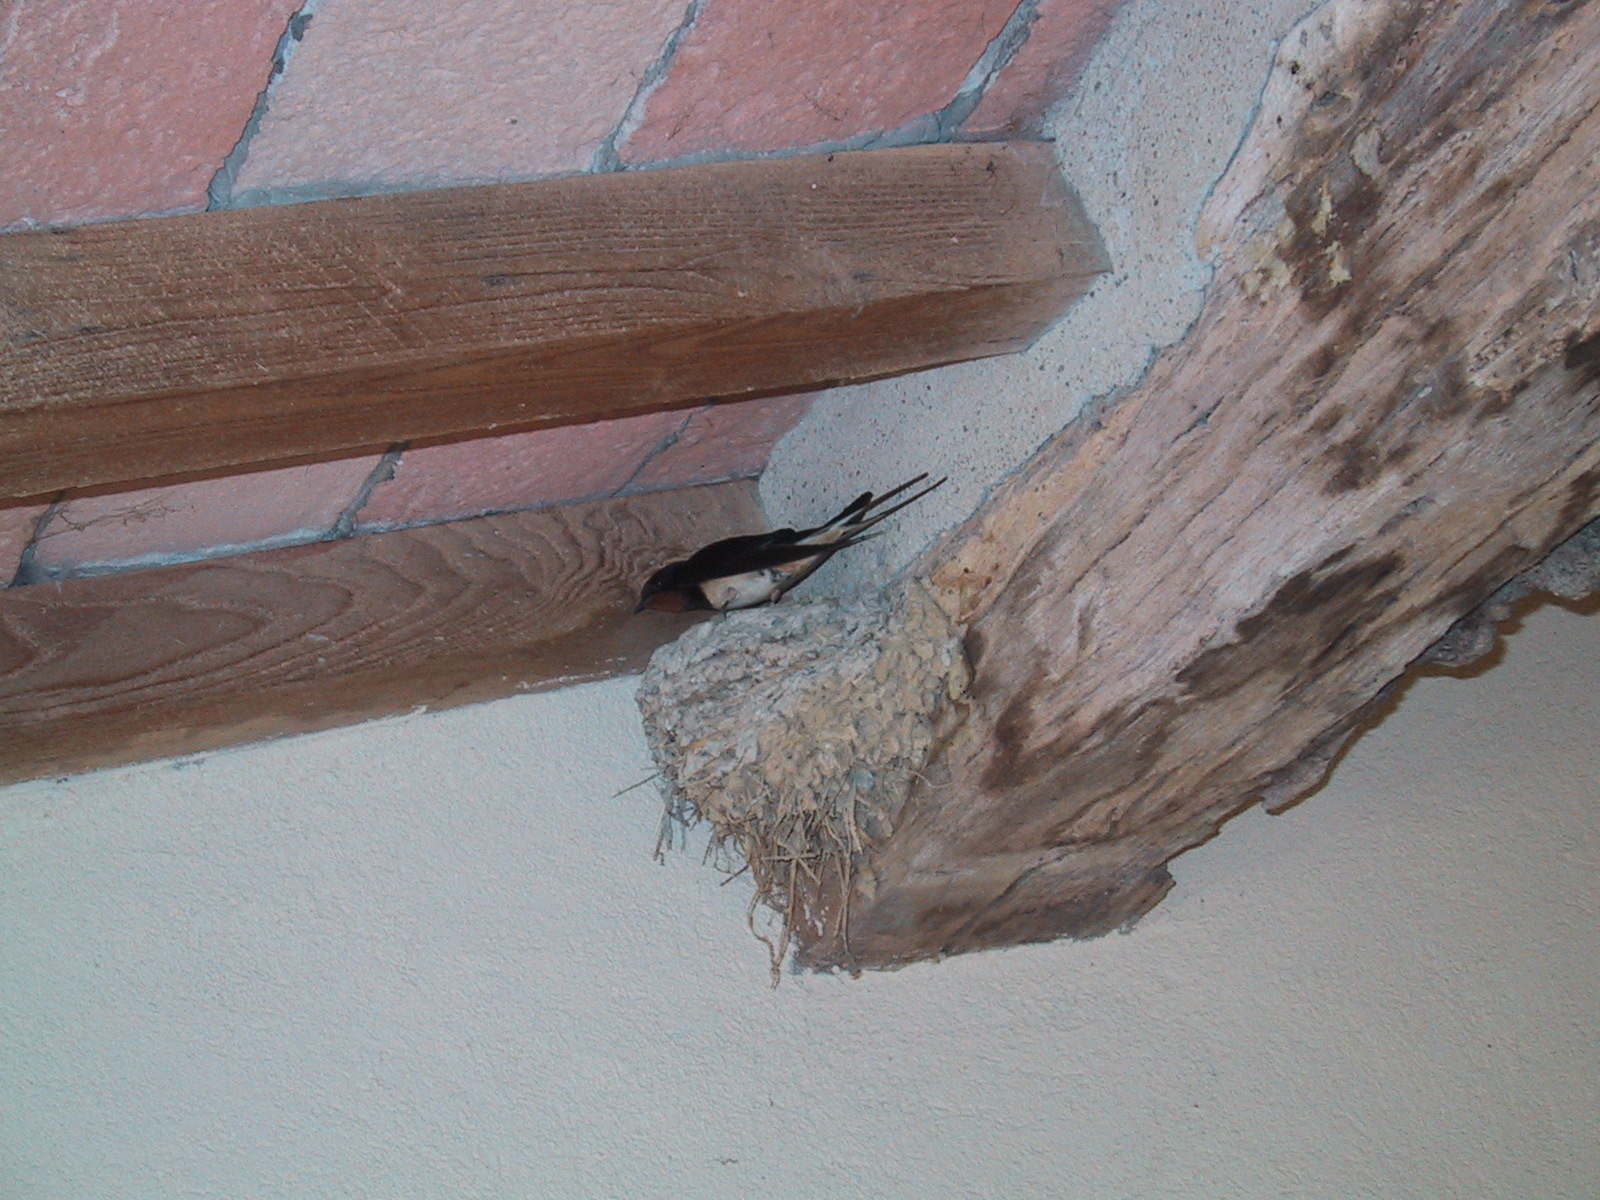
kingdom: Animalia
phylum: Chordata
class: Aves
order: Passeriformes
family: Hirundinidae
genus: Hirundo
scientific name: Hirundo rustica
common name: Barn swallow
